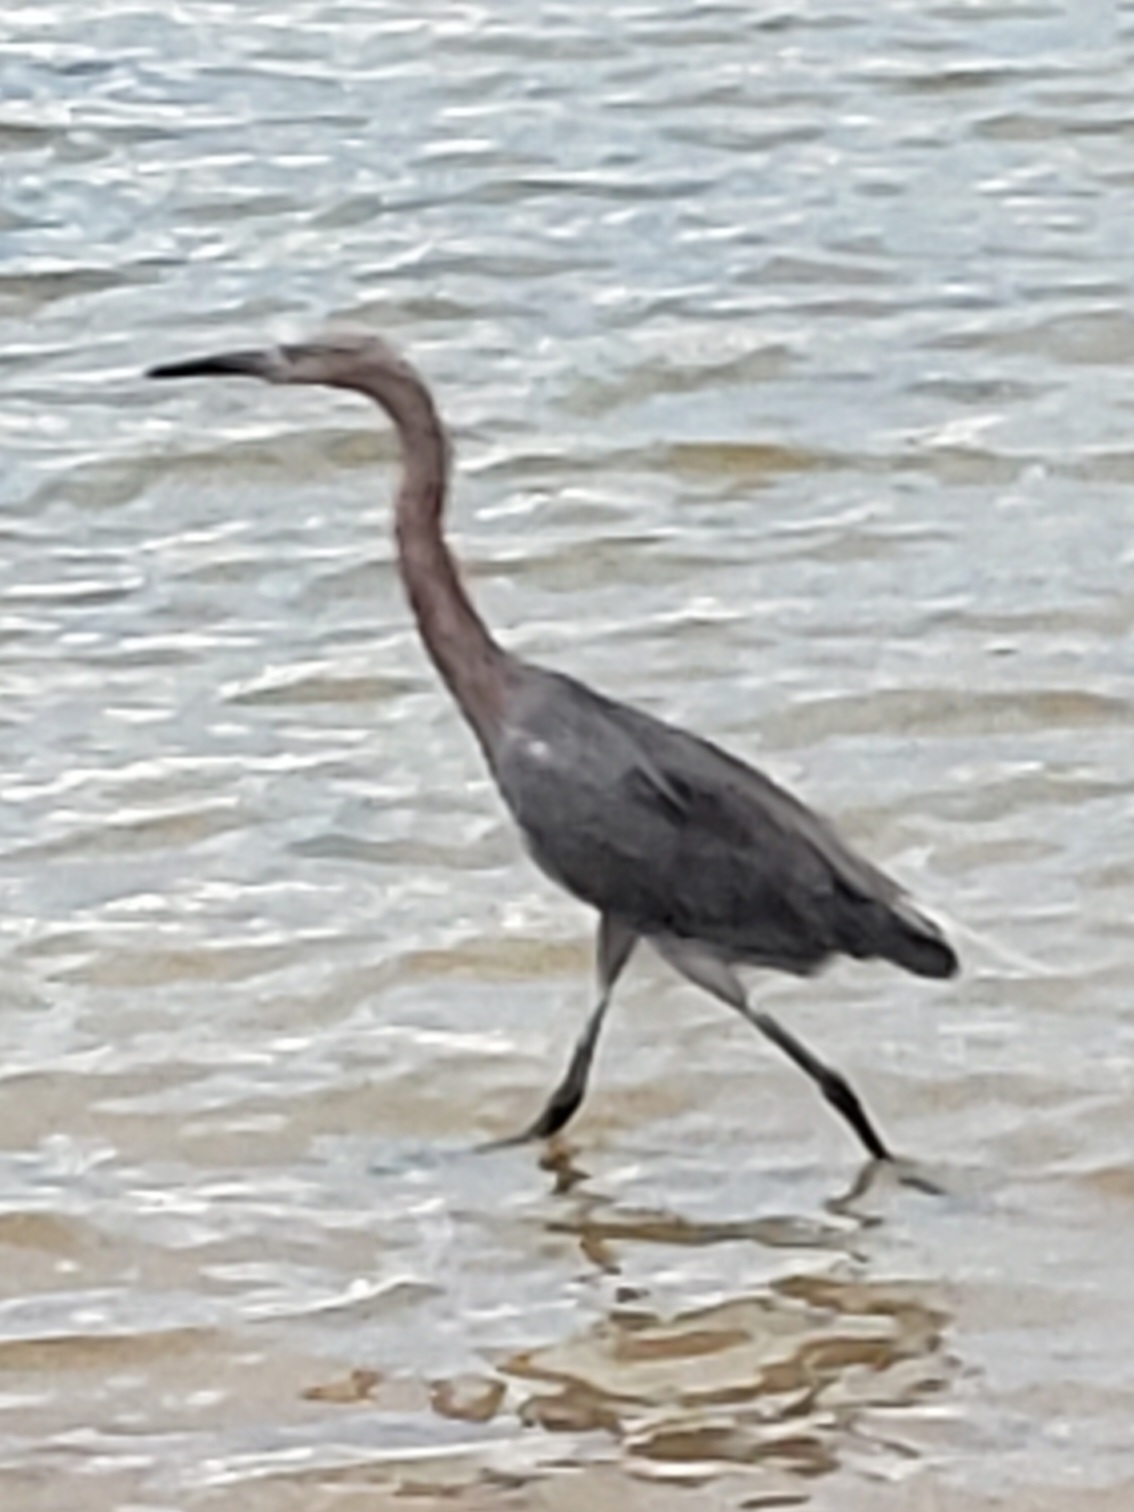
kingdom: Animalia
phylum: Chordata
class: Aves
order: Pelecaniformes
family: Ardeidae
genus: Egretta
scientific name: Egretta rufescens
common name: Reddish egret
